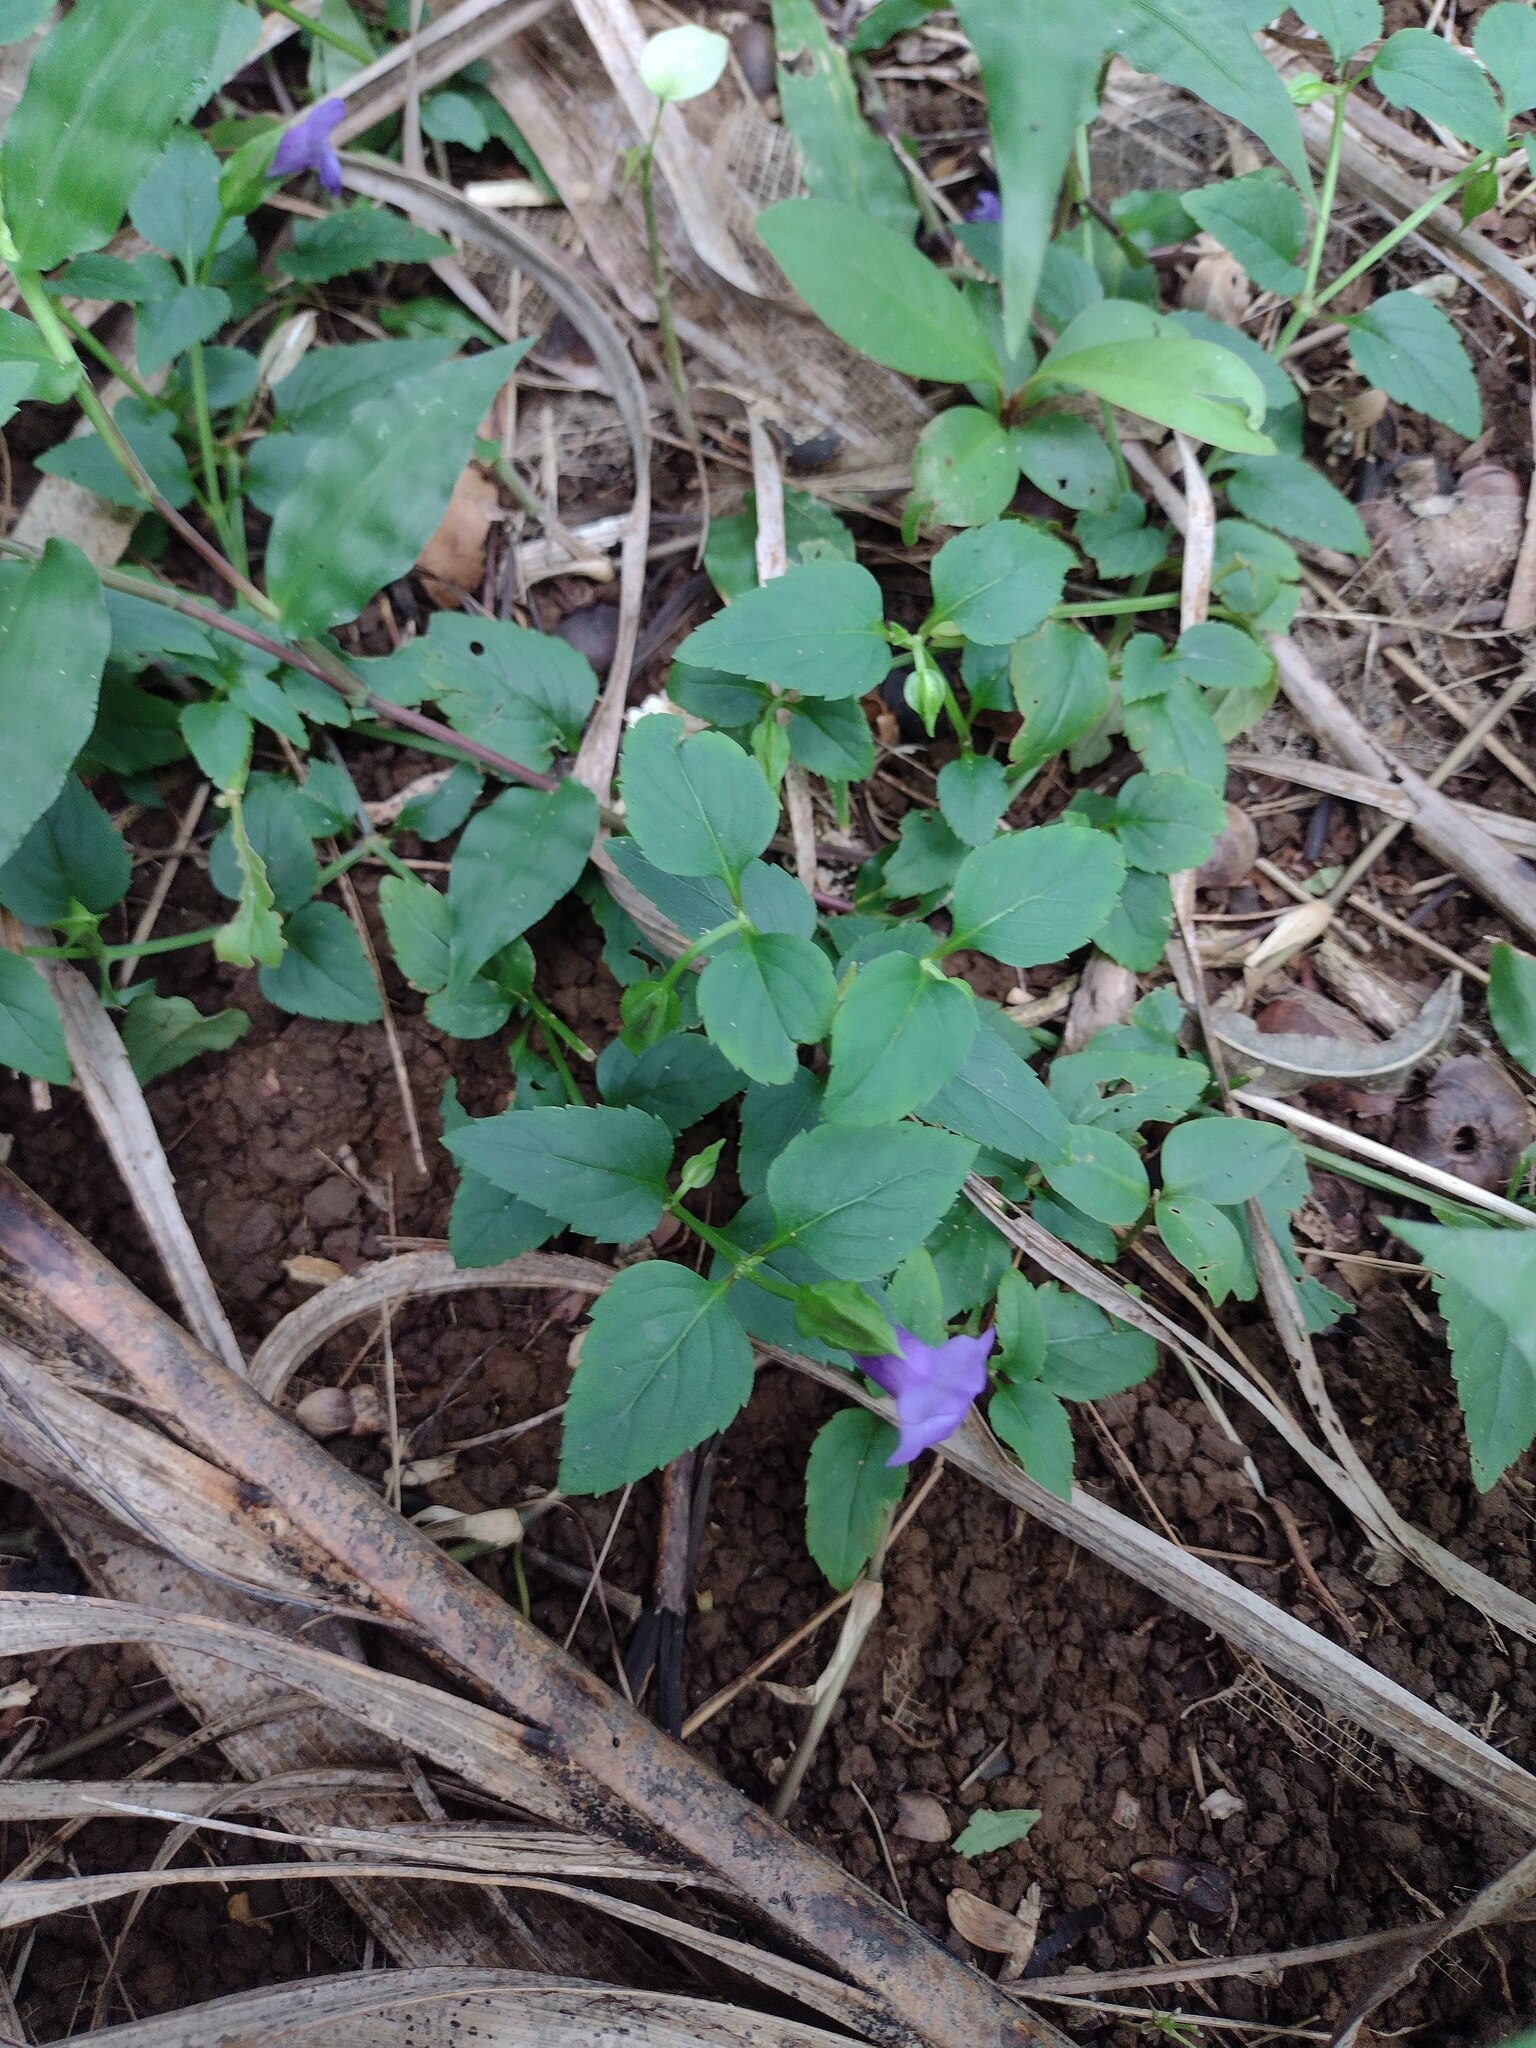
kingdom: Plantae
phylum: Tracheophyta
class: Magnoliopsida
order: Lamiales
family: Linderniaceae
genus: Torenia
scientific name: Torenia asiatica
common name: Wishbone flower
